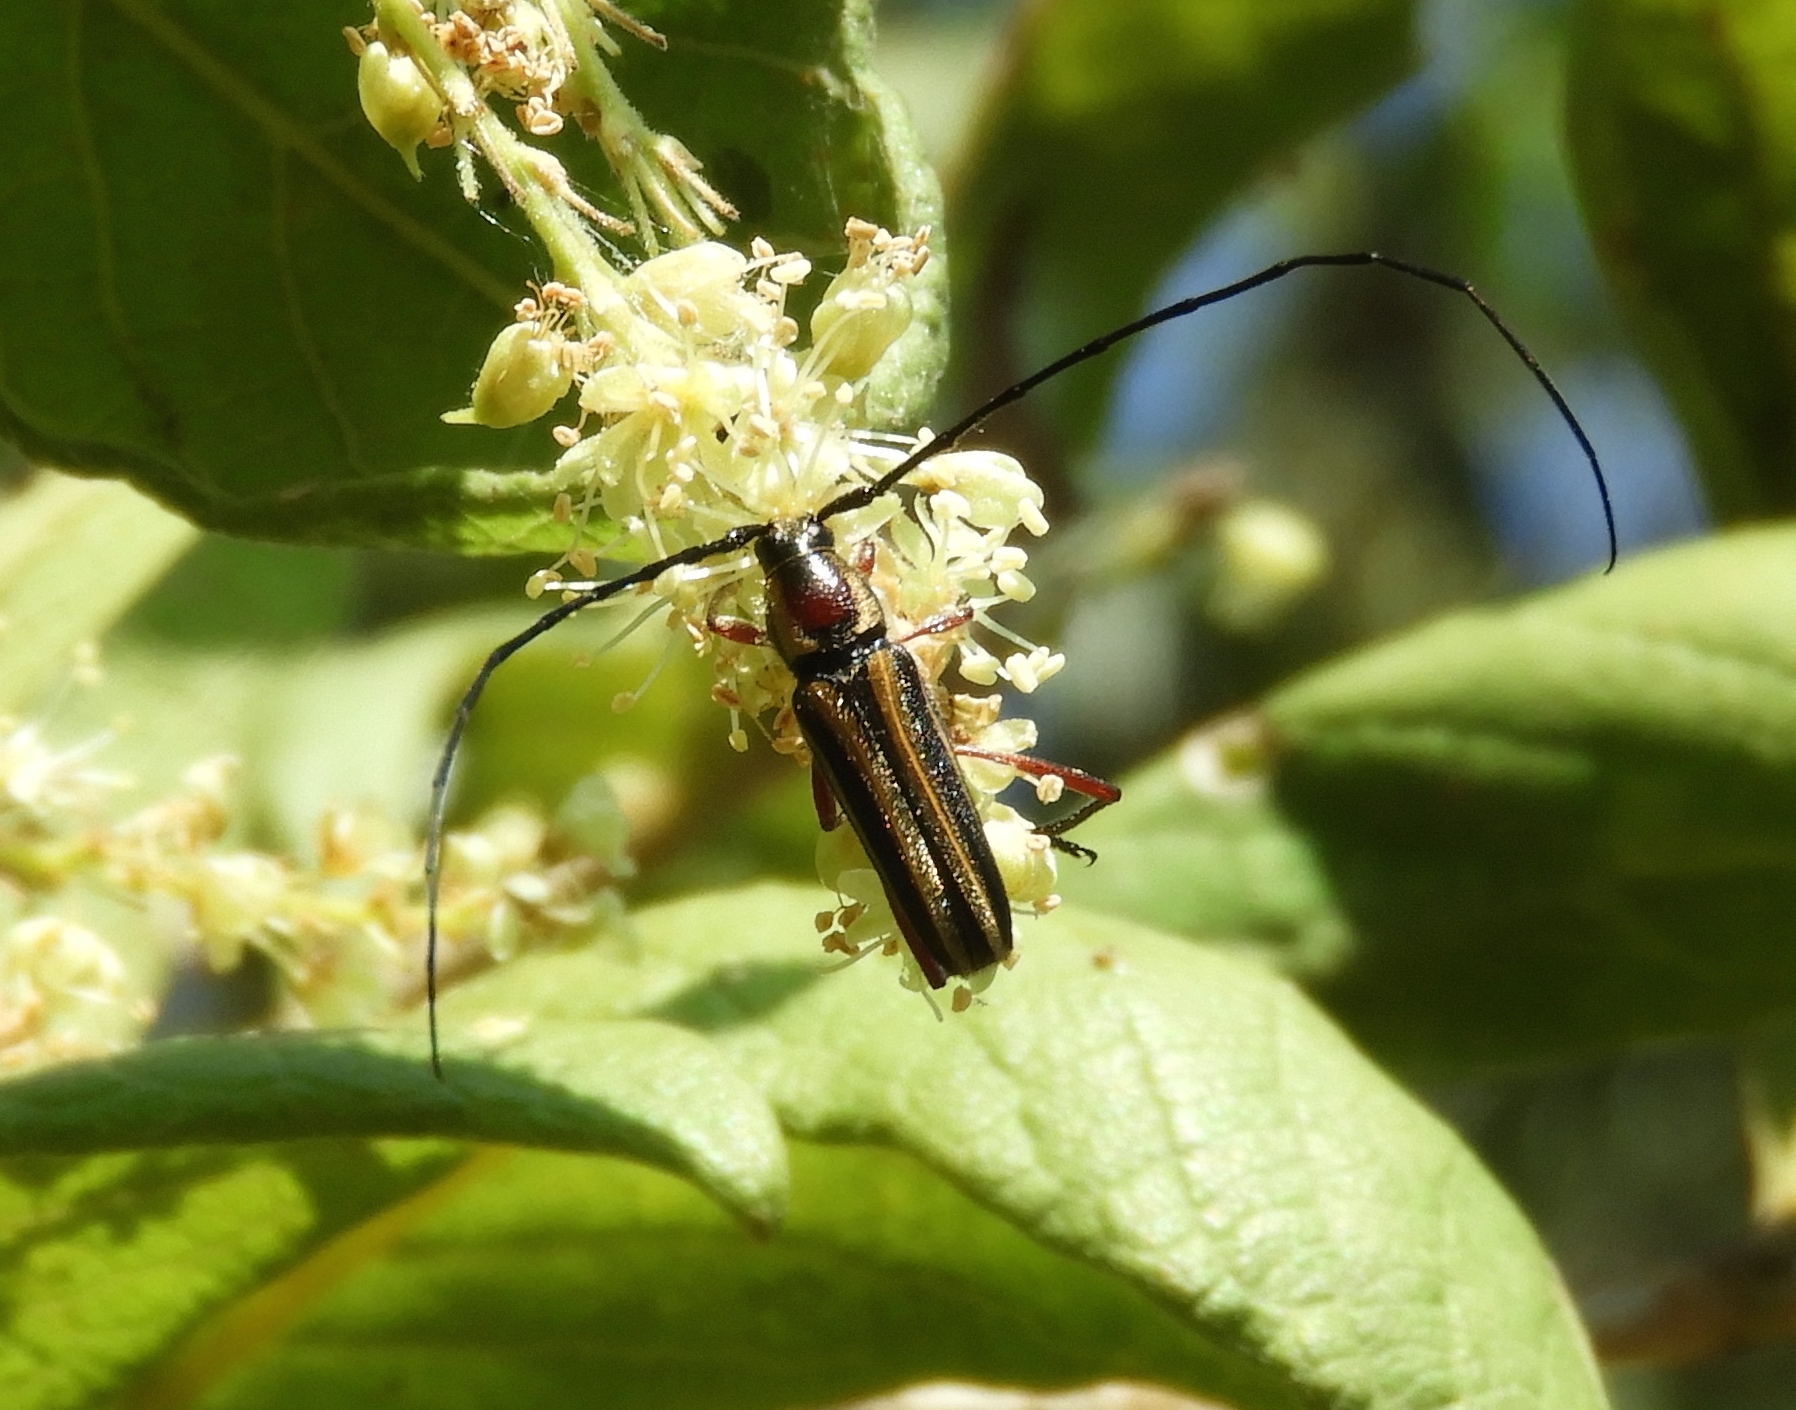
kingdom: Animalia
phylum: Arthropoda
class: Insecta
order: Coleoptera
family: Cerambycidae
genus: Sphaenothecus
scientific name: Sphaenothecus bilineatus
